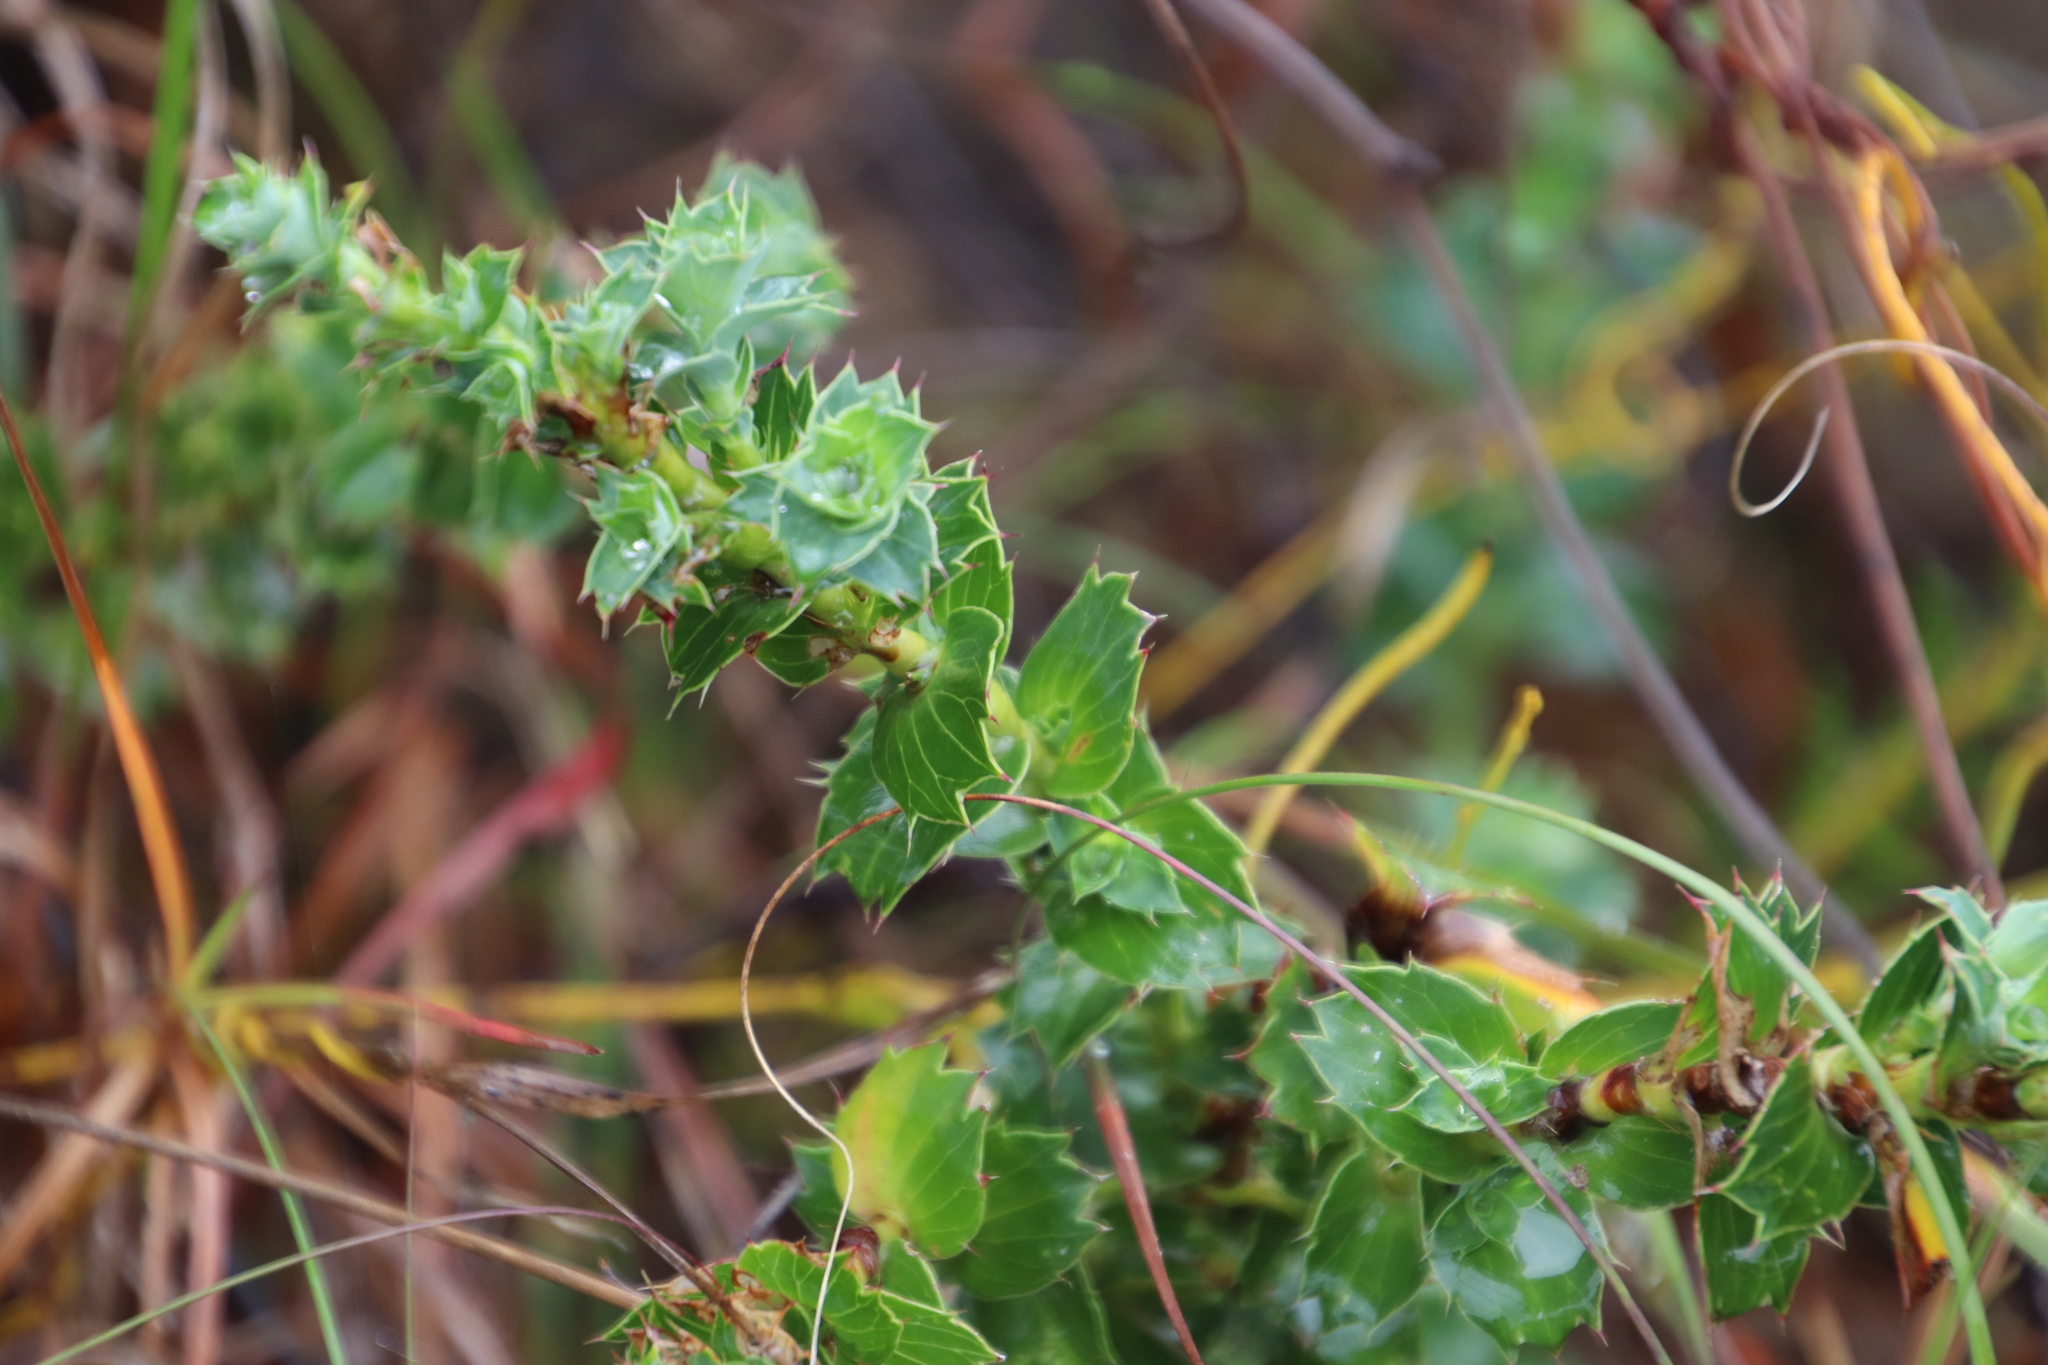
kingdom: Plantae
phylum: Tracheophyta
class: Magnoliopsida
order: Rosales
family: Rosaceae
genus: Cliffortia
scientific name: Cliffortia schlechteri
